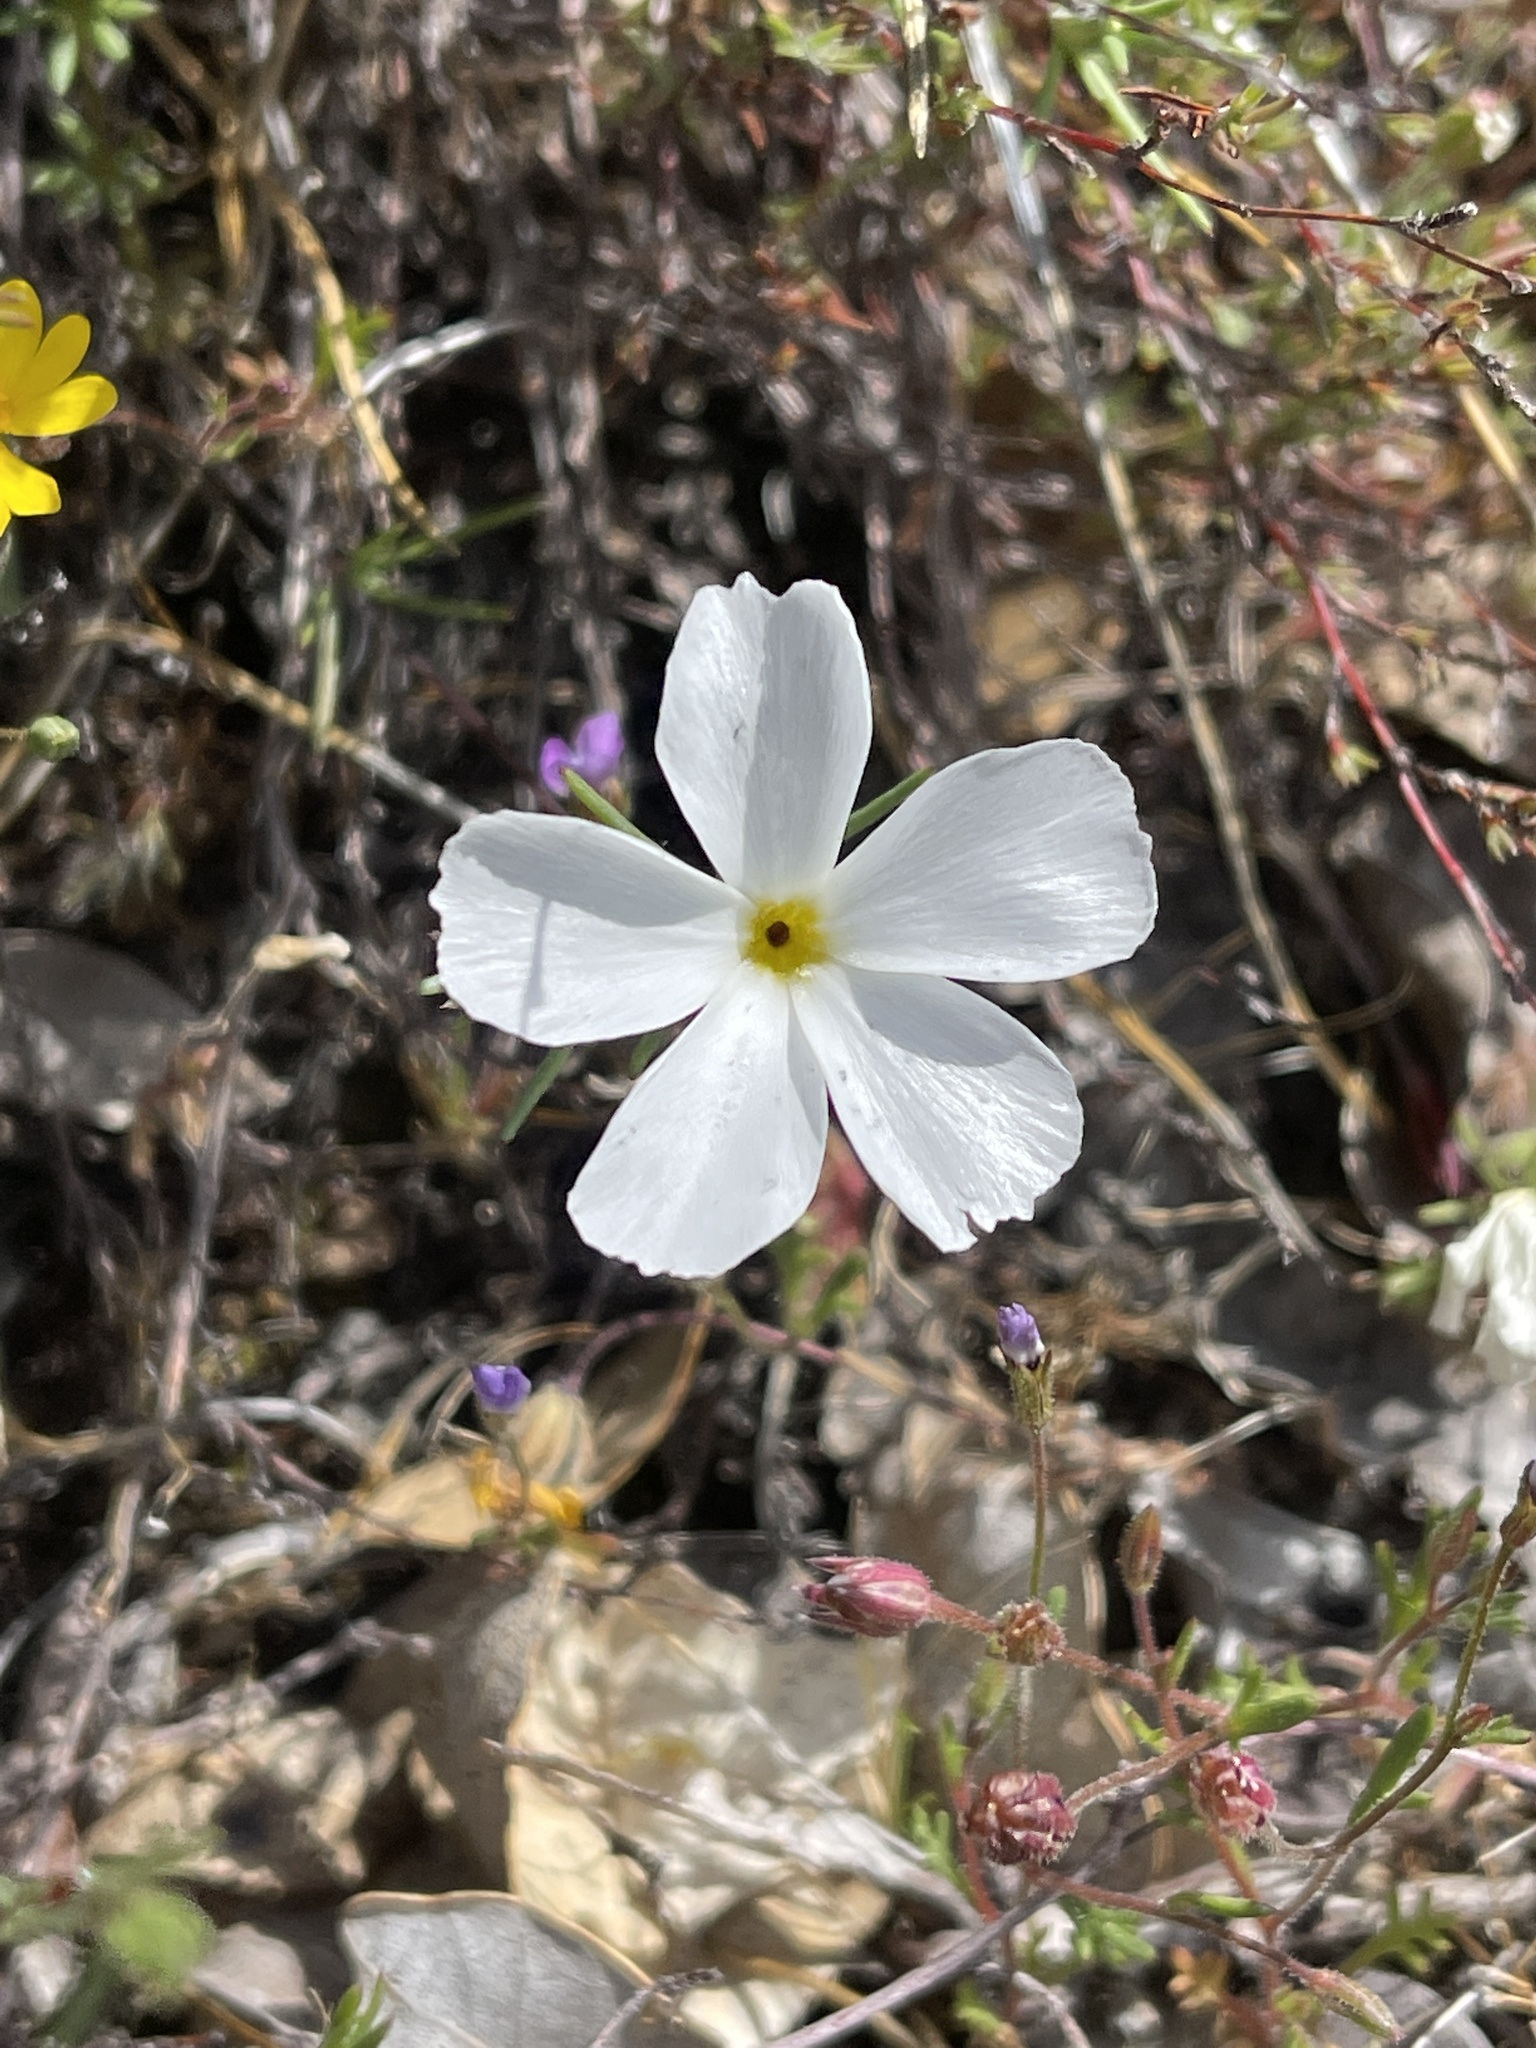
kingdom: Plantae
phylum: Tracheophyta
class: Magnoliopsida
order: Ericales
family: Polemoniaceae
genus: Linanthus
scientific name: Linanthus dichotomus
